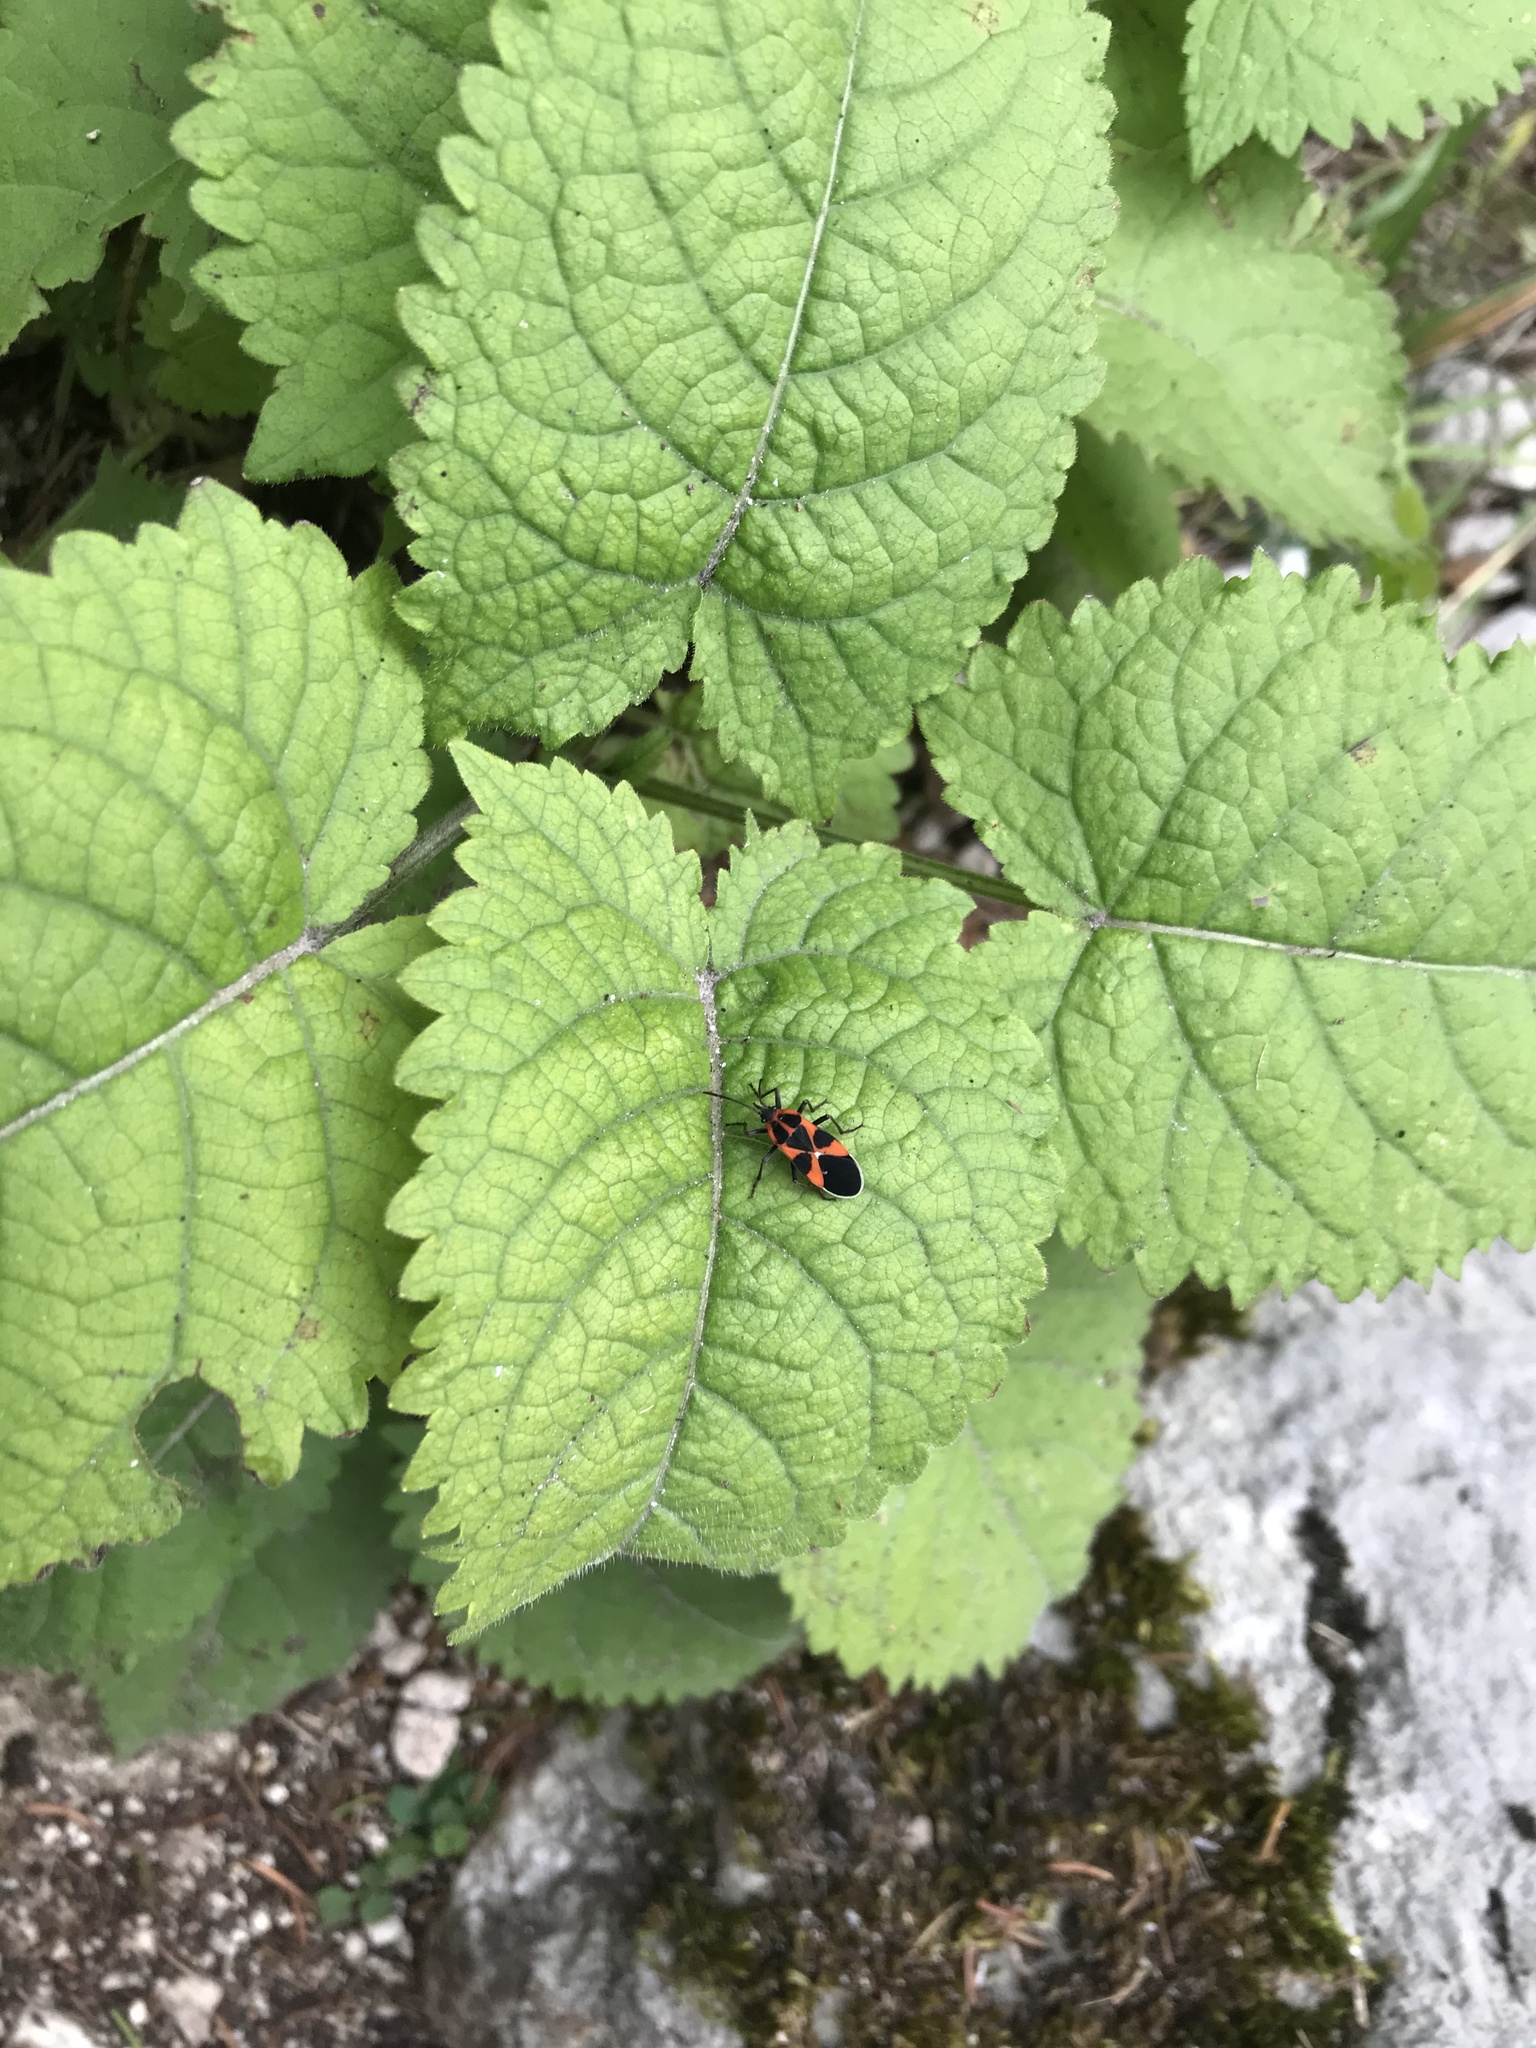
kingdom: Plantae
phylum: Tracheophyta
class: Magnoliopsida
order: Lamiales
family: Lamiaceae
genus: Salvia
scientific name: Salvia glutinosa
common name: Sticky clary
